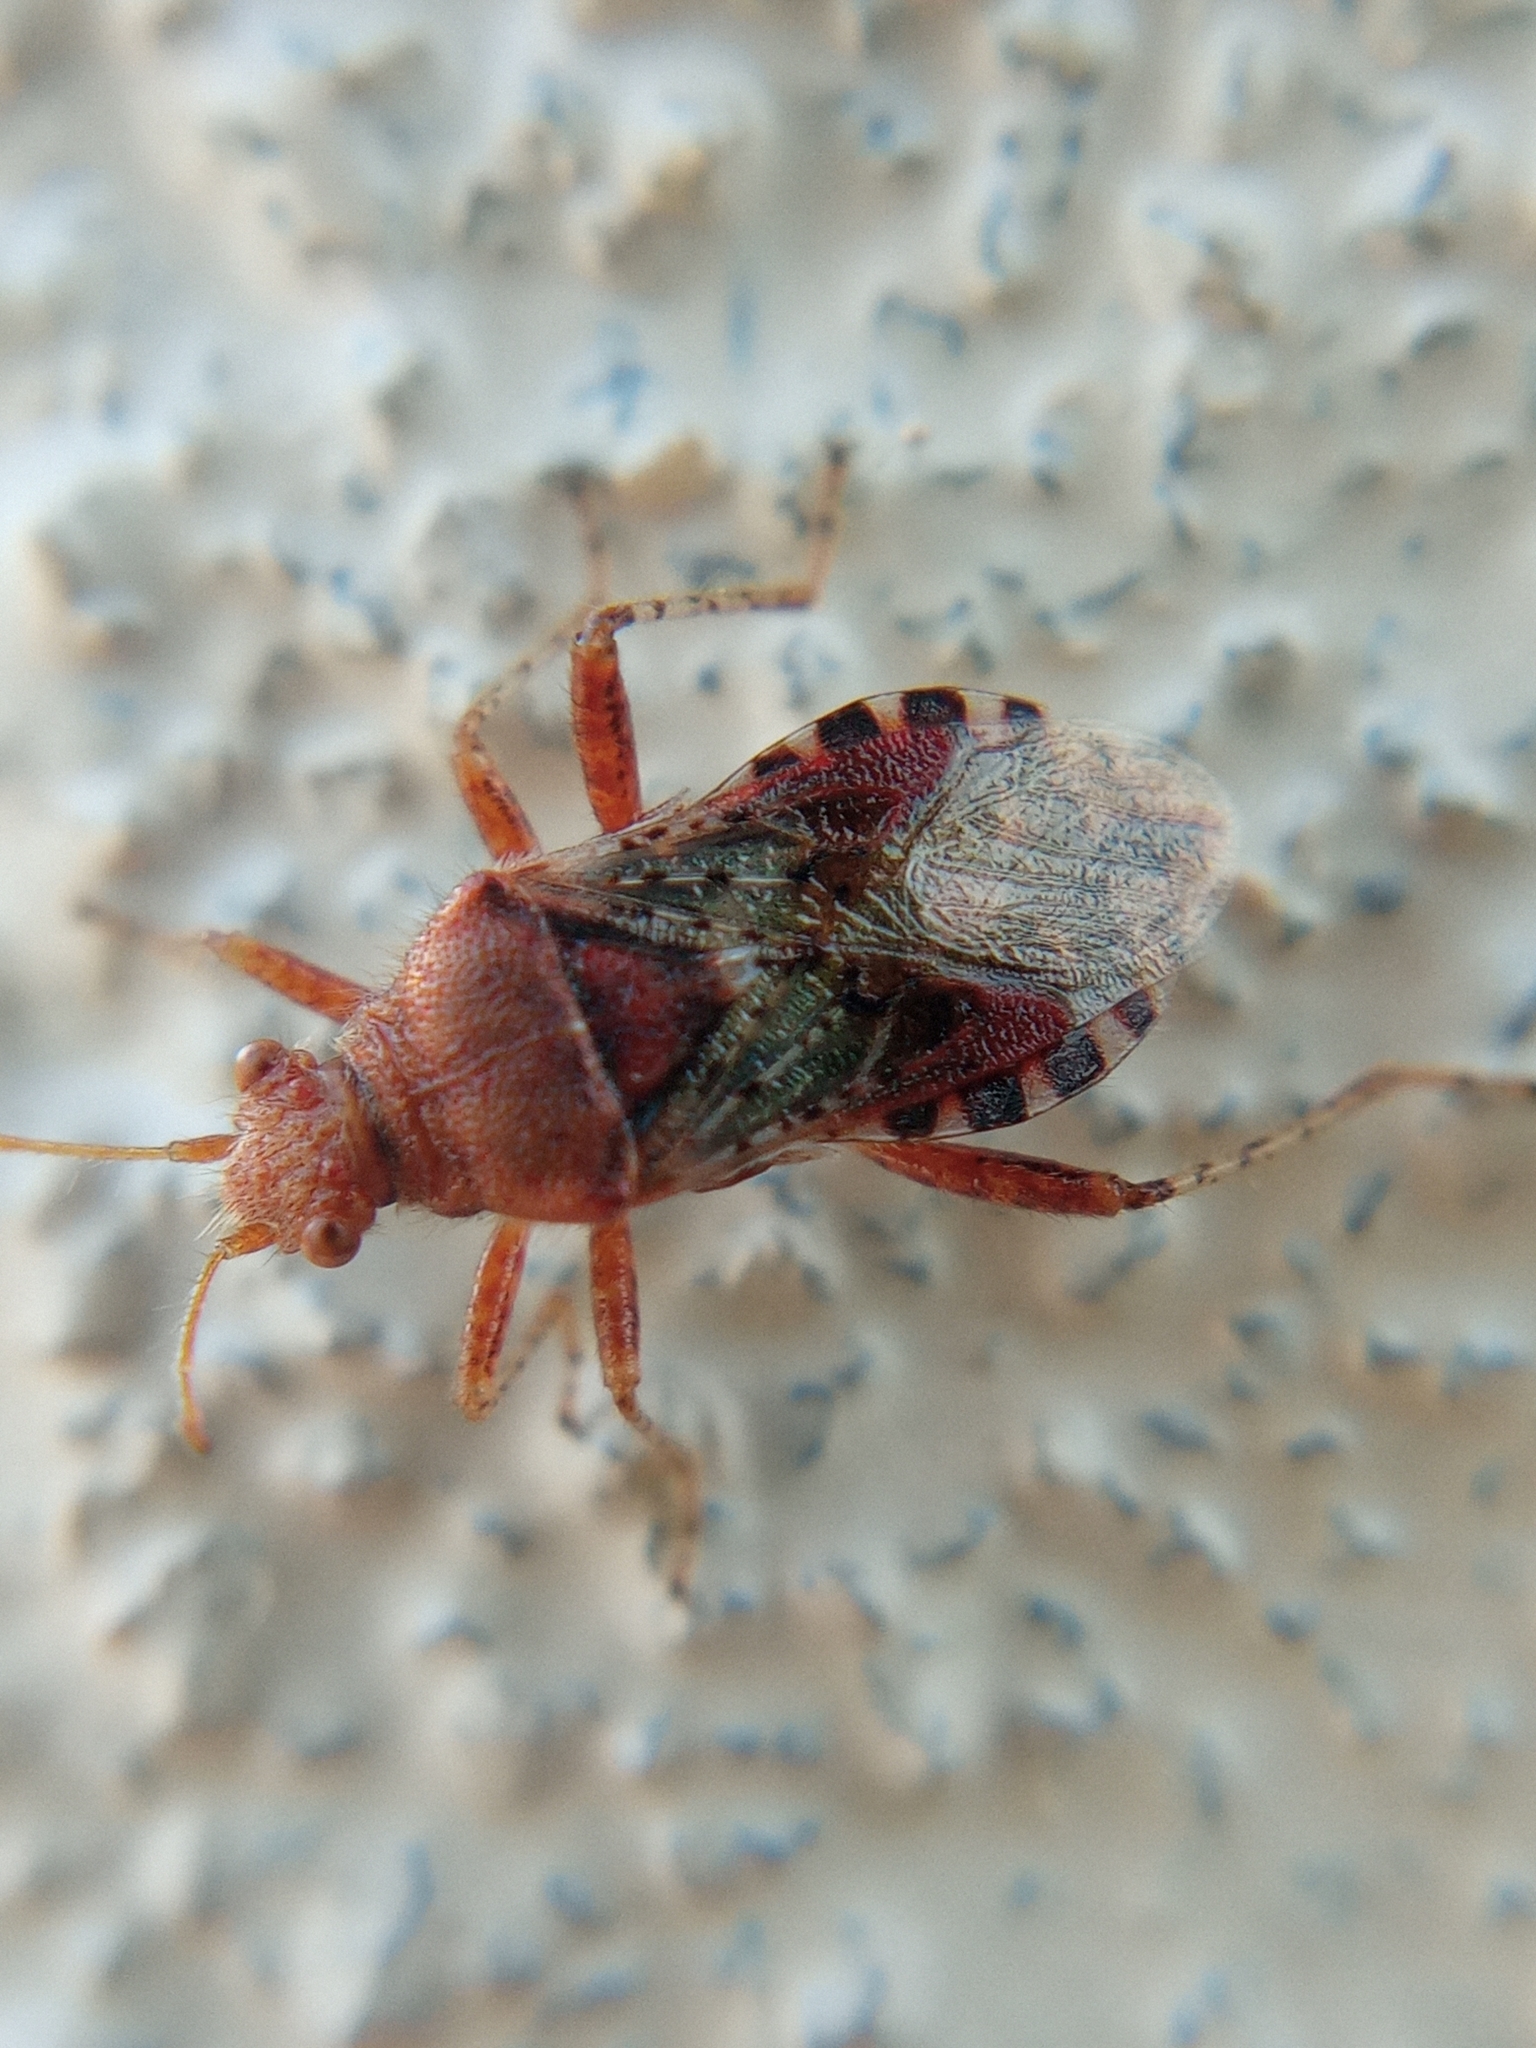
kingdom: Animalia
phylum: Arthropoda
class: Insecta
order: Hemiptera
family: Rhopalidae
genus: Rhopalus
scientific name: Rhopalus subrufus
